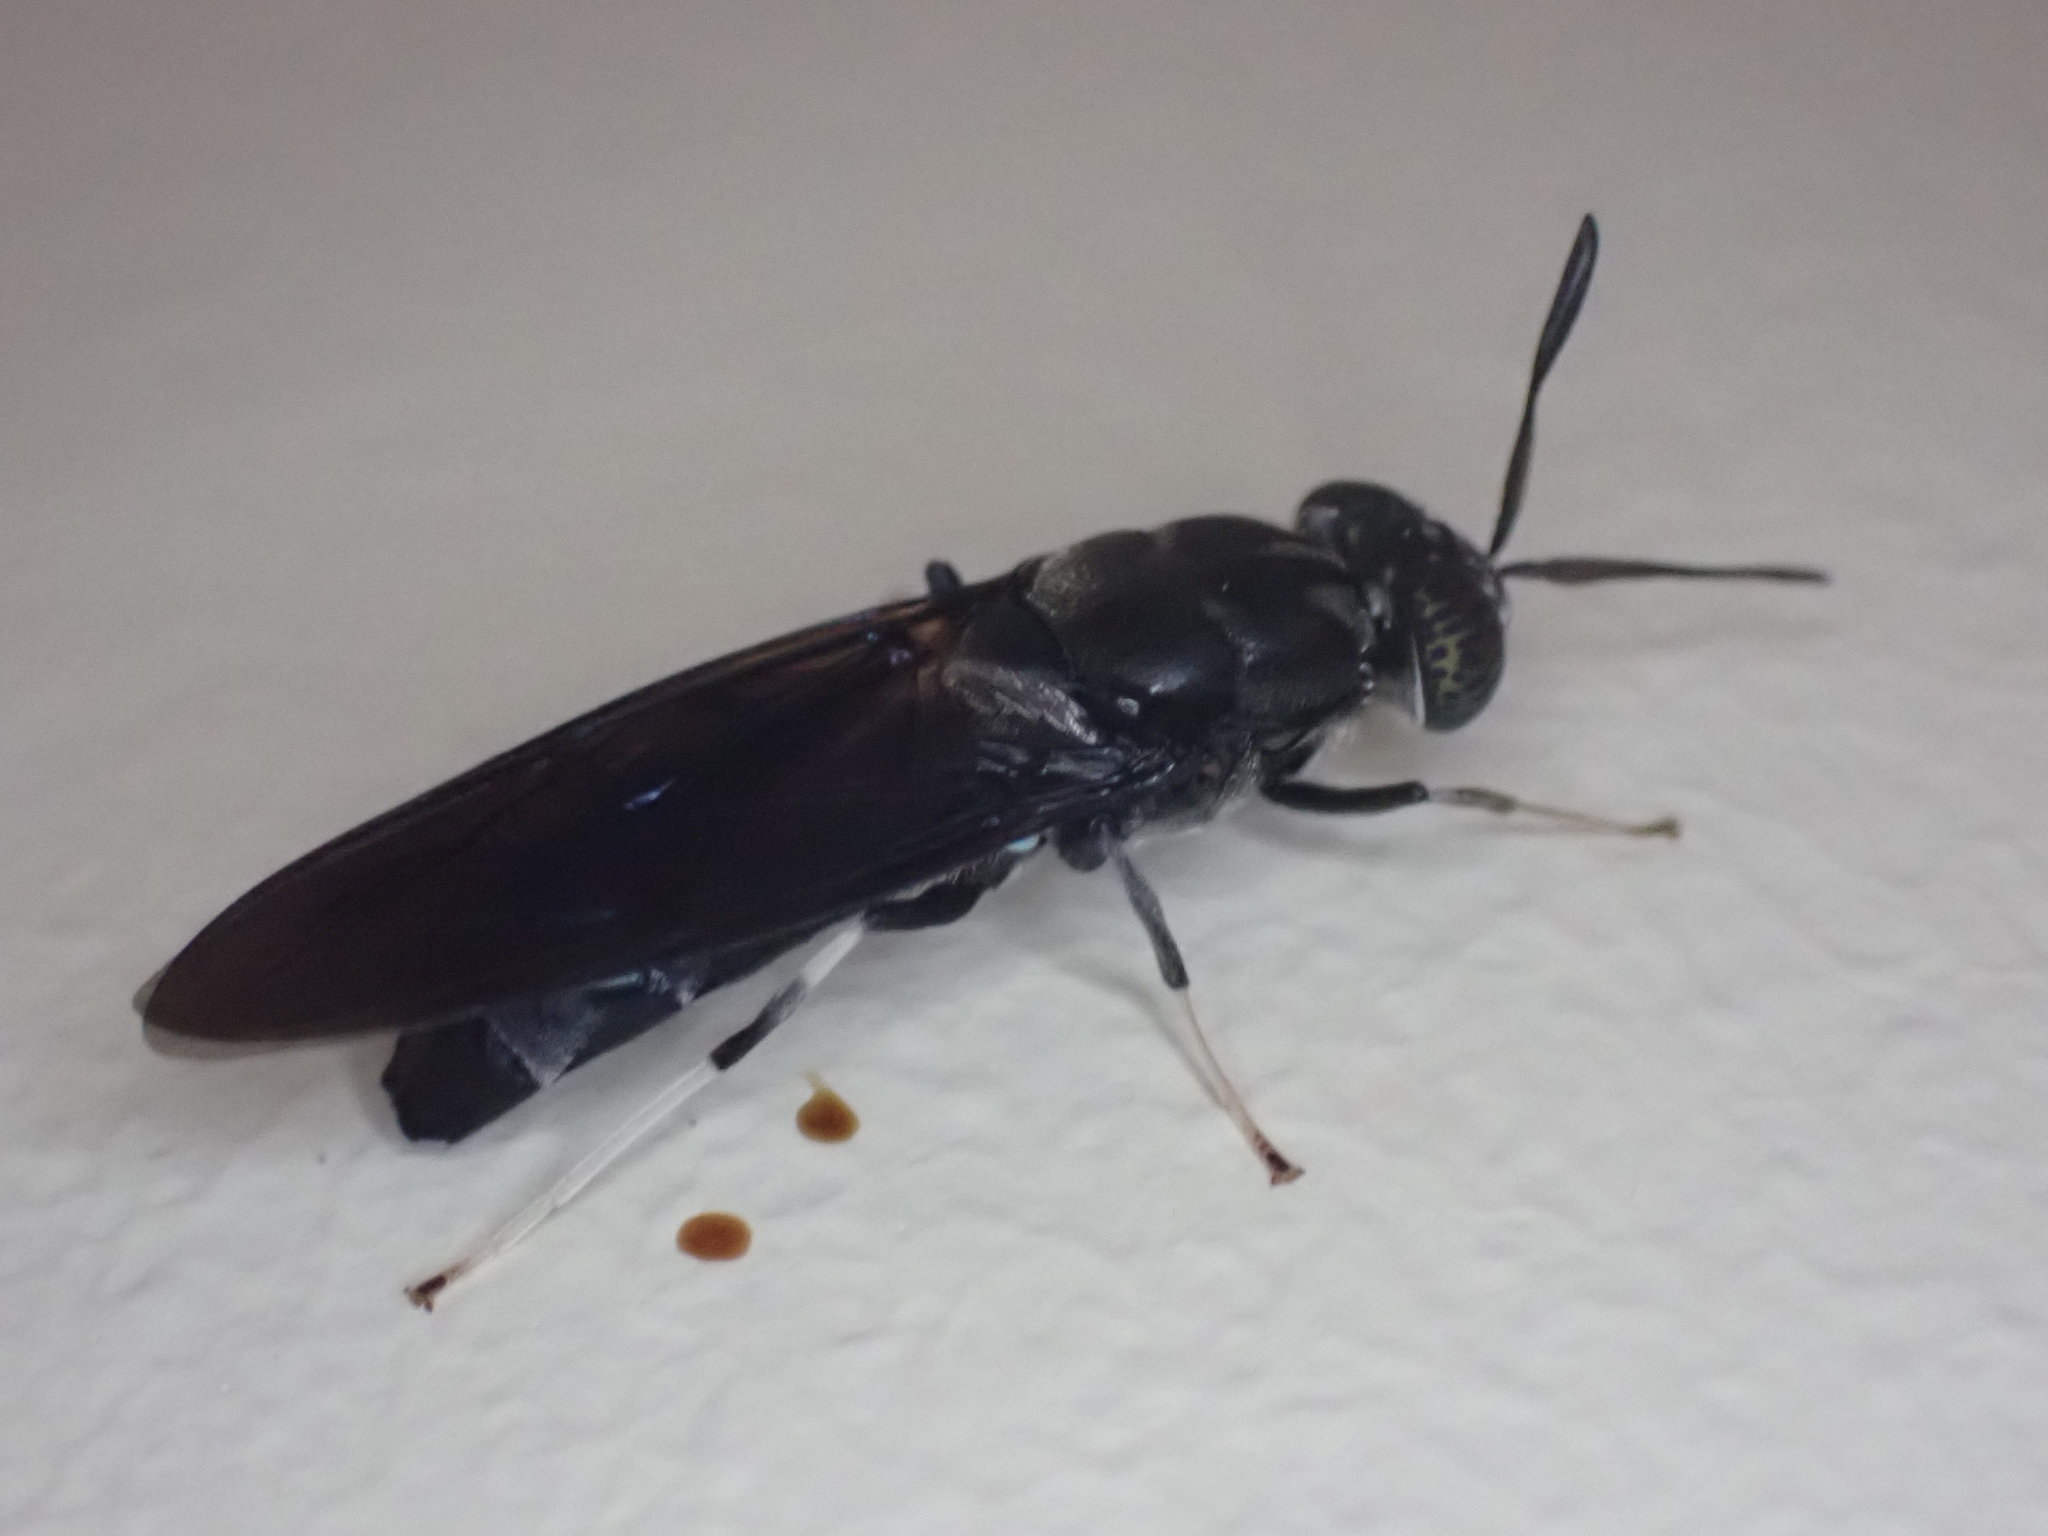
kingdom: Animalia
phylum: Arthropoda
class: Insecta
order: Diptera
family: Stratiomyidae
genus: Hermetia
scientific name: Hermetia illucens
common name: Black soldier fly
